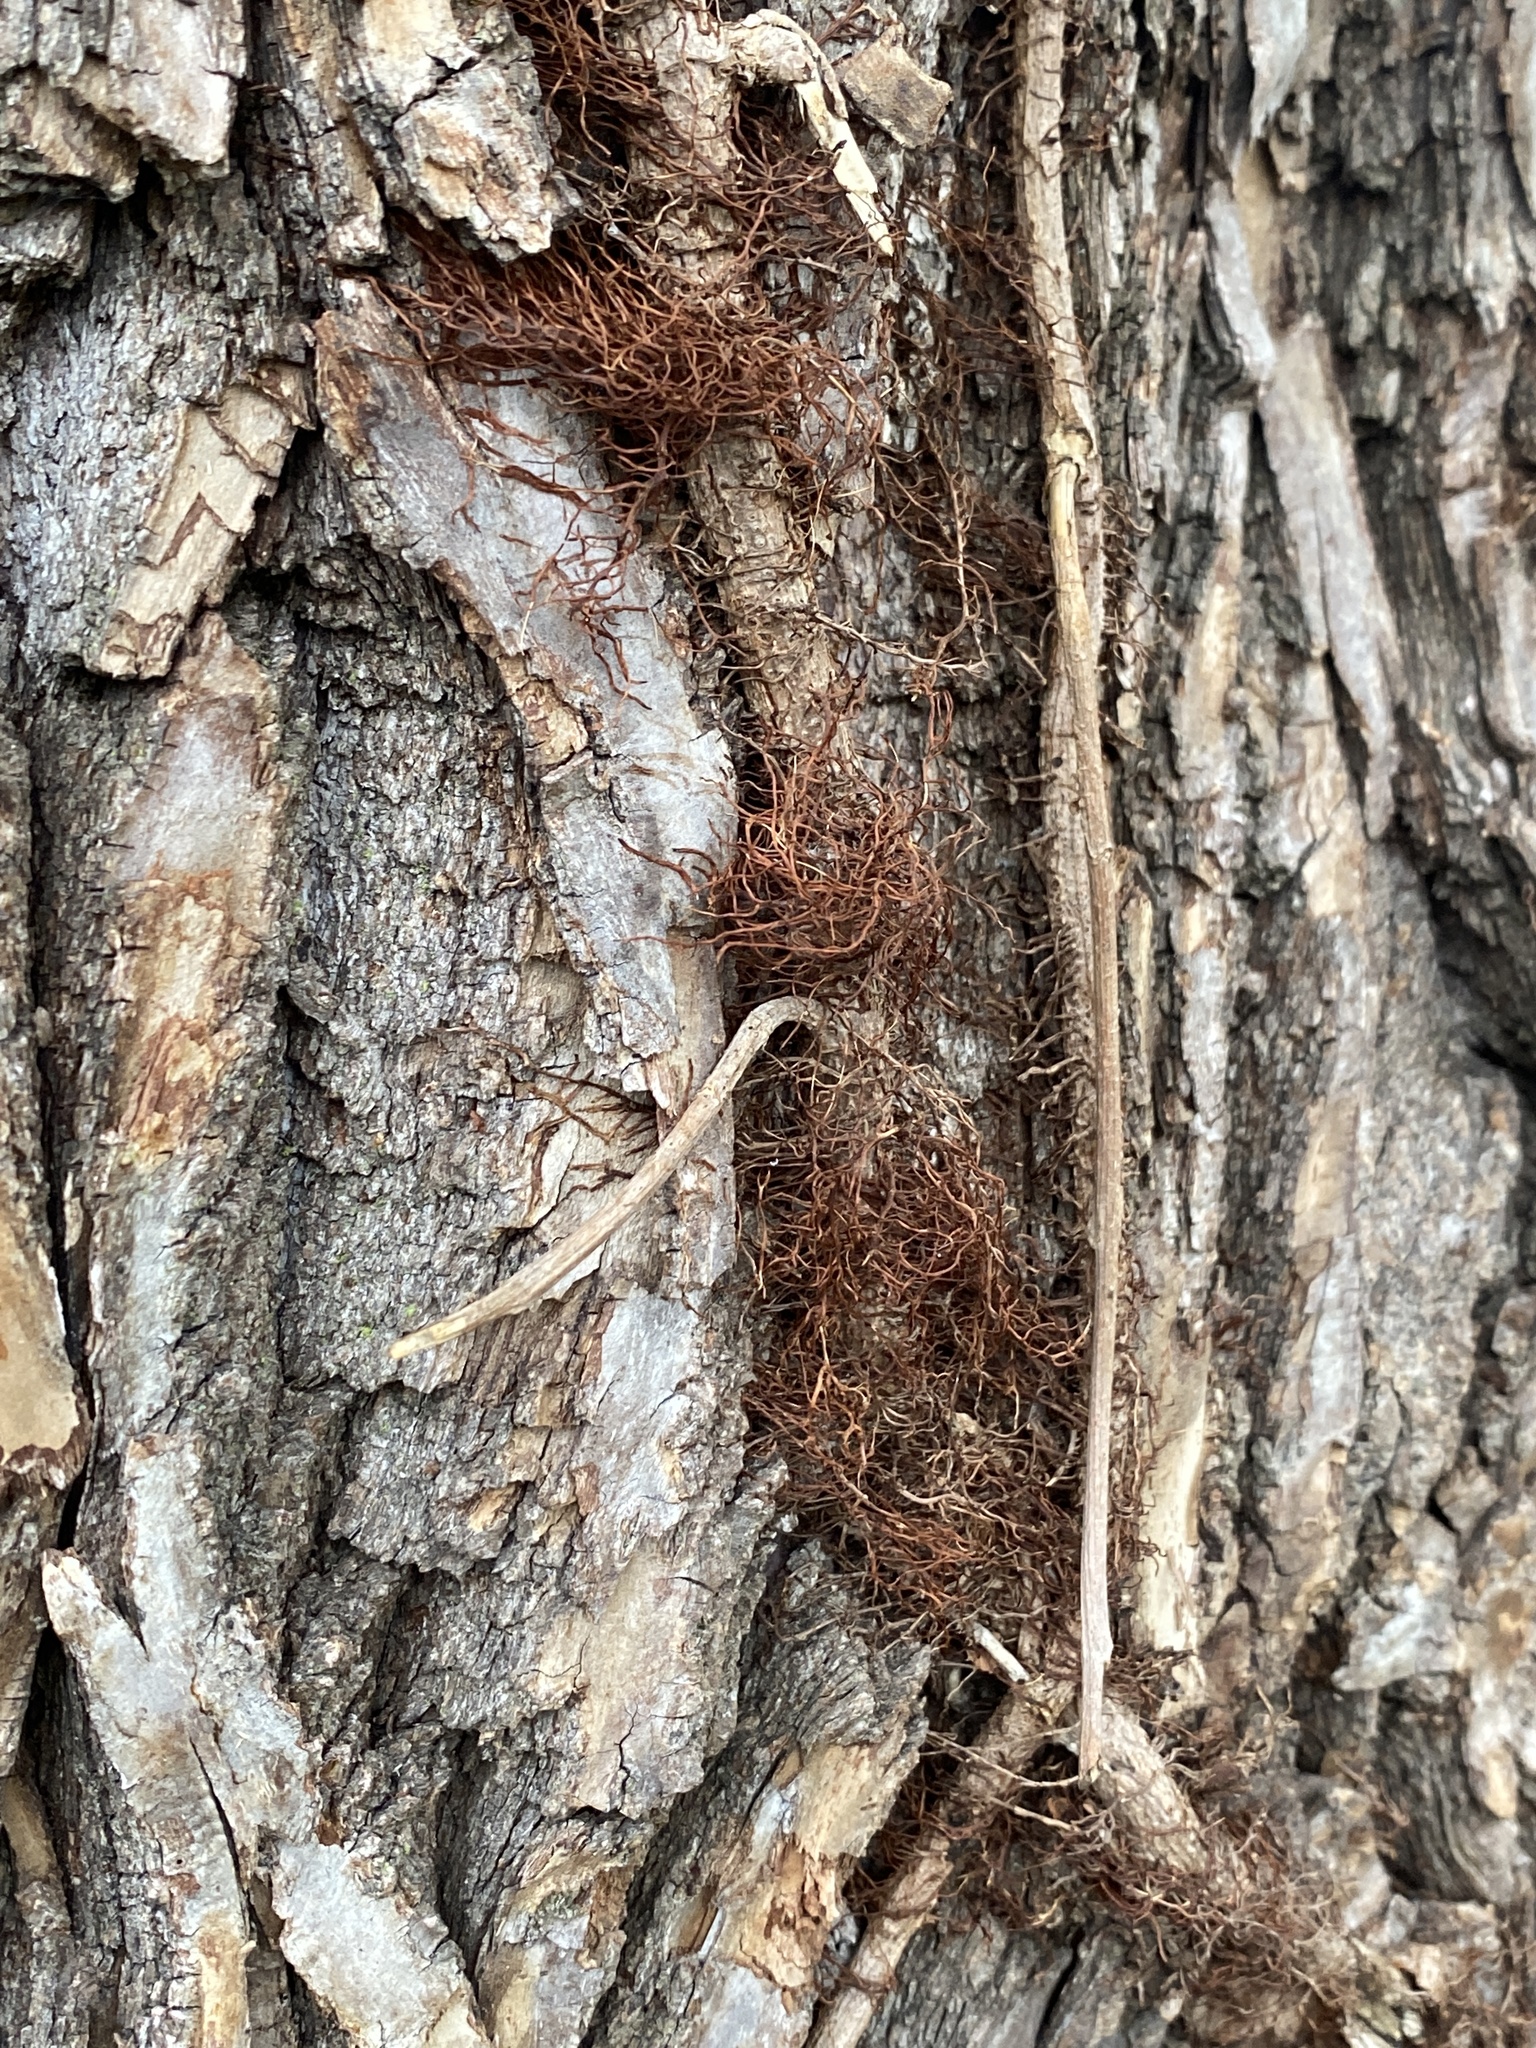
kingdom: Plantae
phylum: Tracheophyta
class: Magnoliopsida
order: Sapindales
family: Anacardiaceae
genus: Toxicodendron
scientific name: Toxicodendron radicans
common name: Poison ivy
